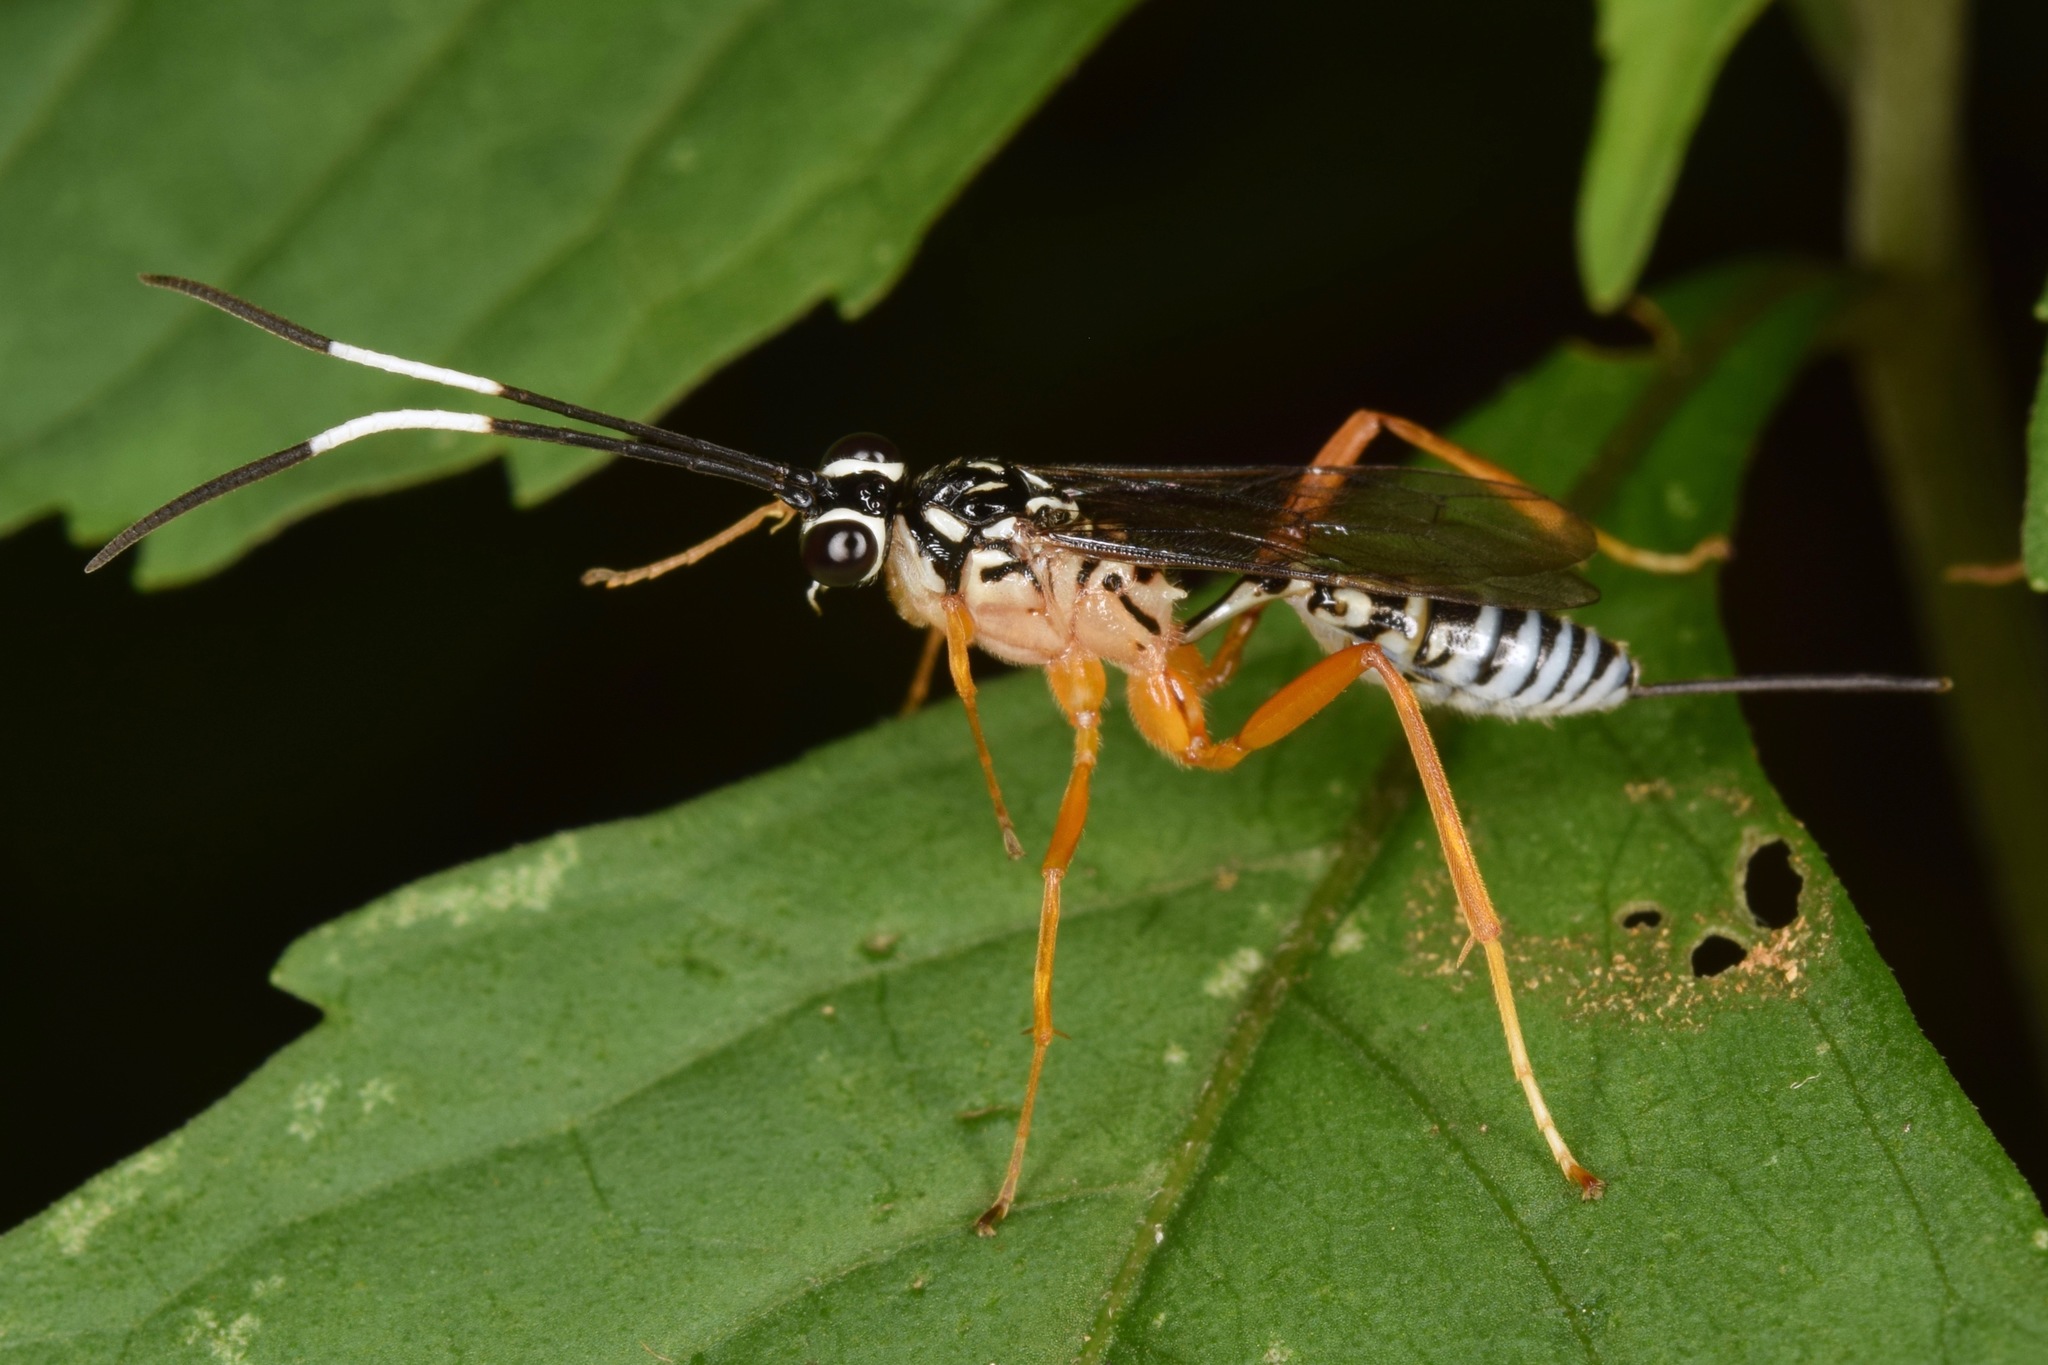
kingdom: Animalia
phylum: Arthropoda
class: Insecta
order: Hymenoptera
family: Ichneumonidae
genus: Polycyrtus
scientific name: Polycyrtus neglectus
